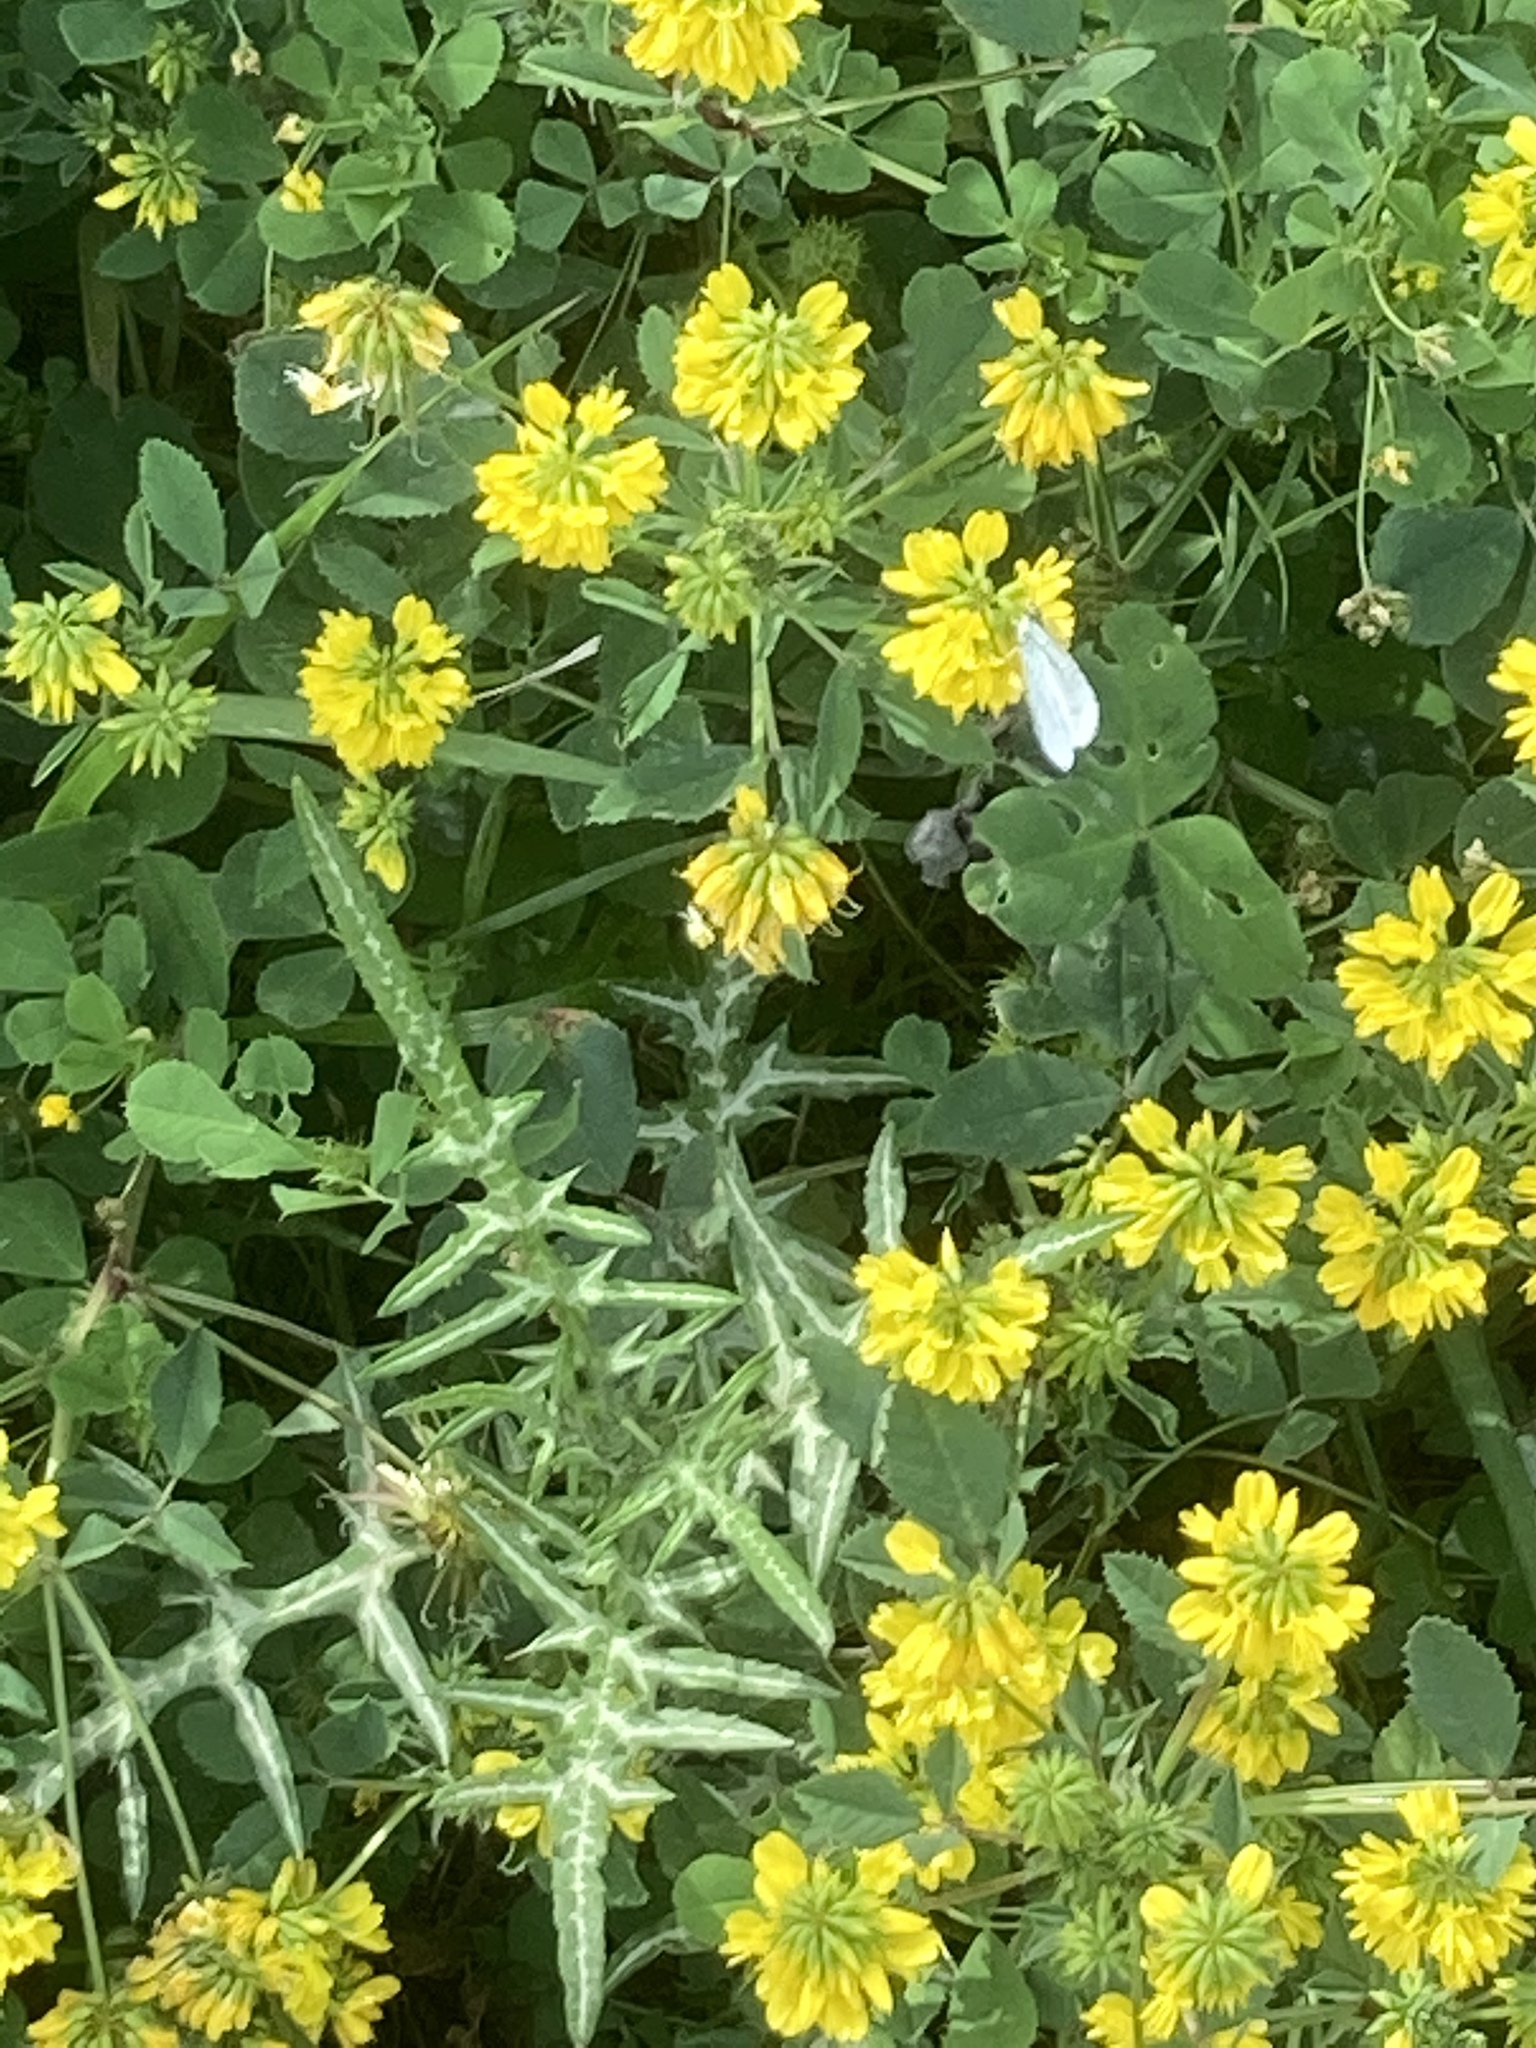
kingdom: Plantae
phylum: Tracheophyta
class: Magnoliopsida
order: Asterales
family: Asteraceae
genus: Galactites
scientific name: Galactites tomentosa
